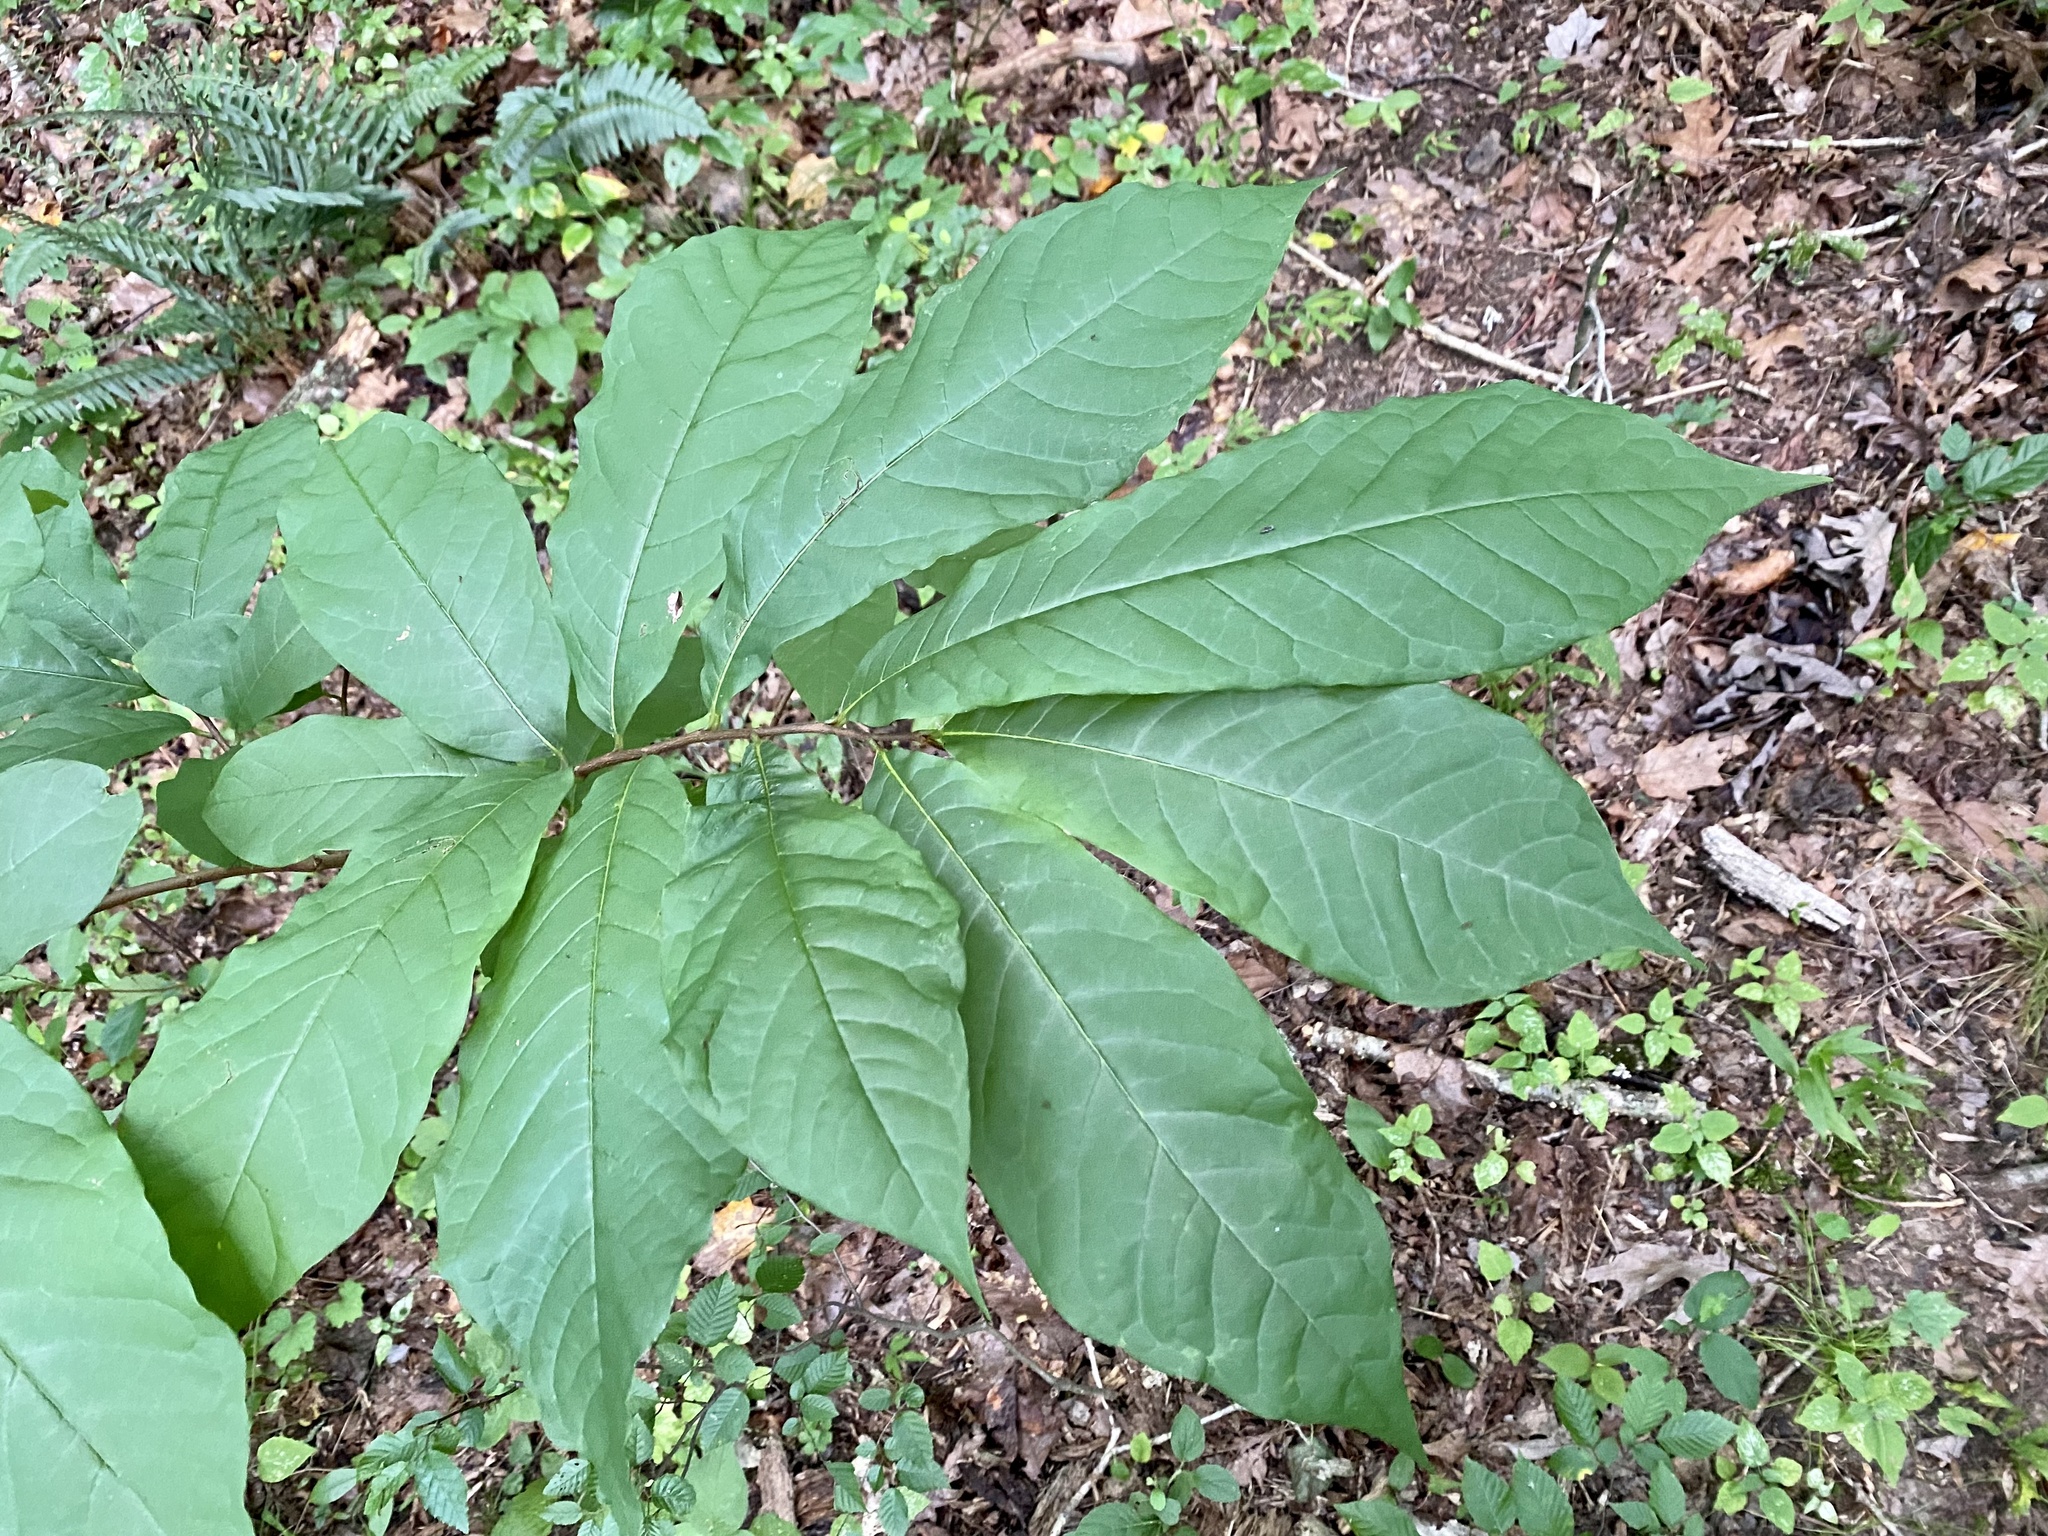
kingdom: Plantae
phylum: Tracheophyta
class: Magnoliopsida
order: Magnoliales
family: Annonaceae
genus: Asimina
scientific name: Asimina triloba
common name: Dog-banana
